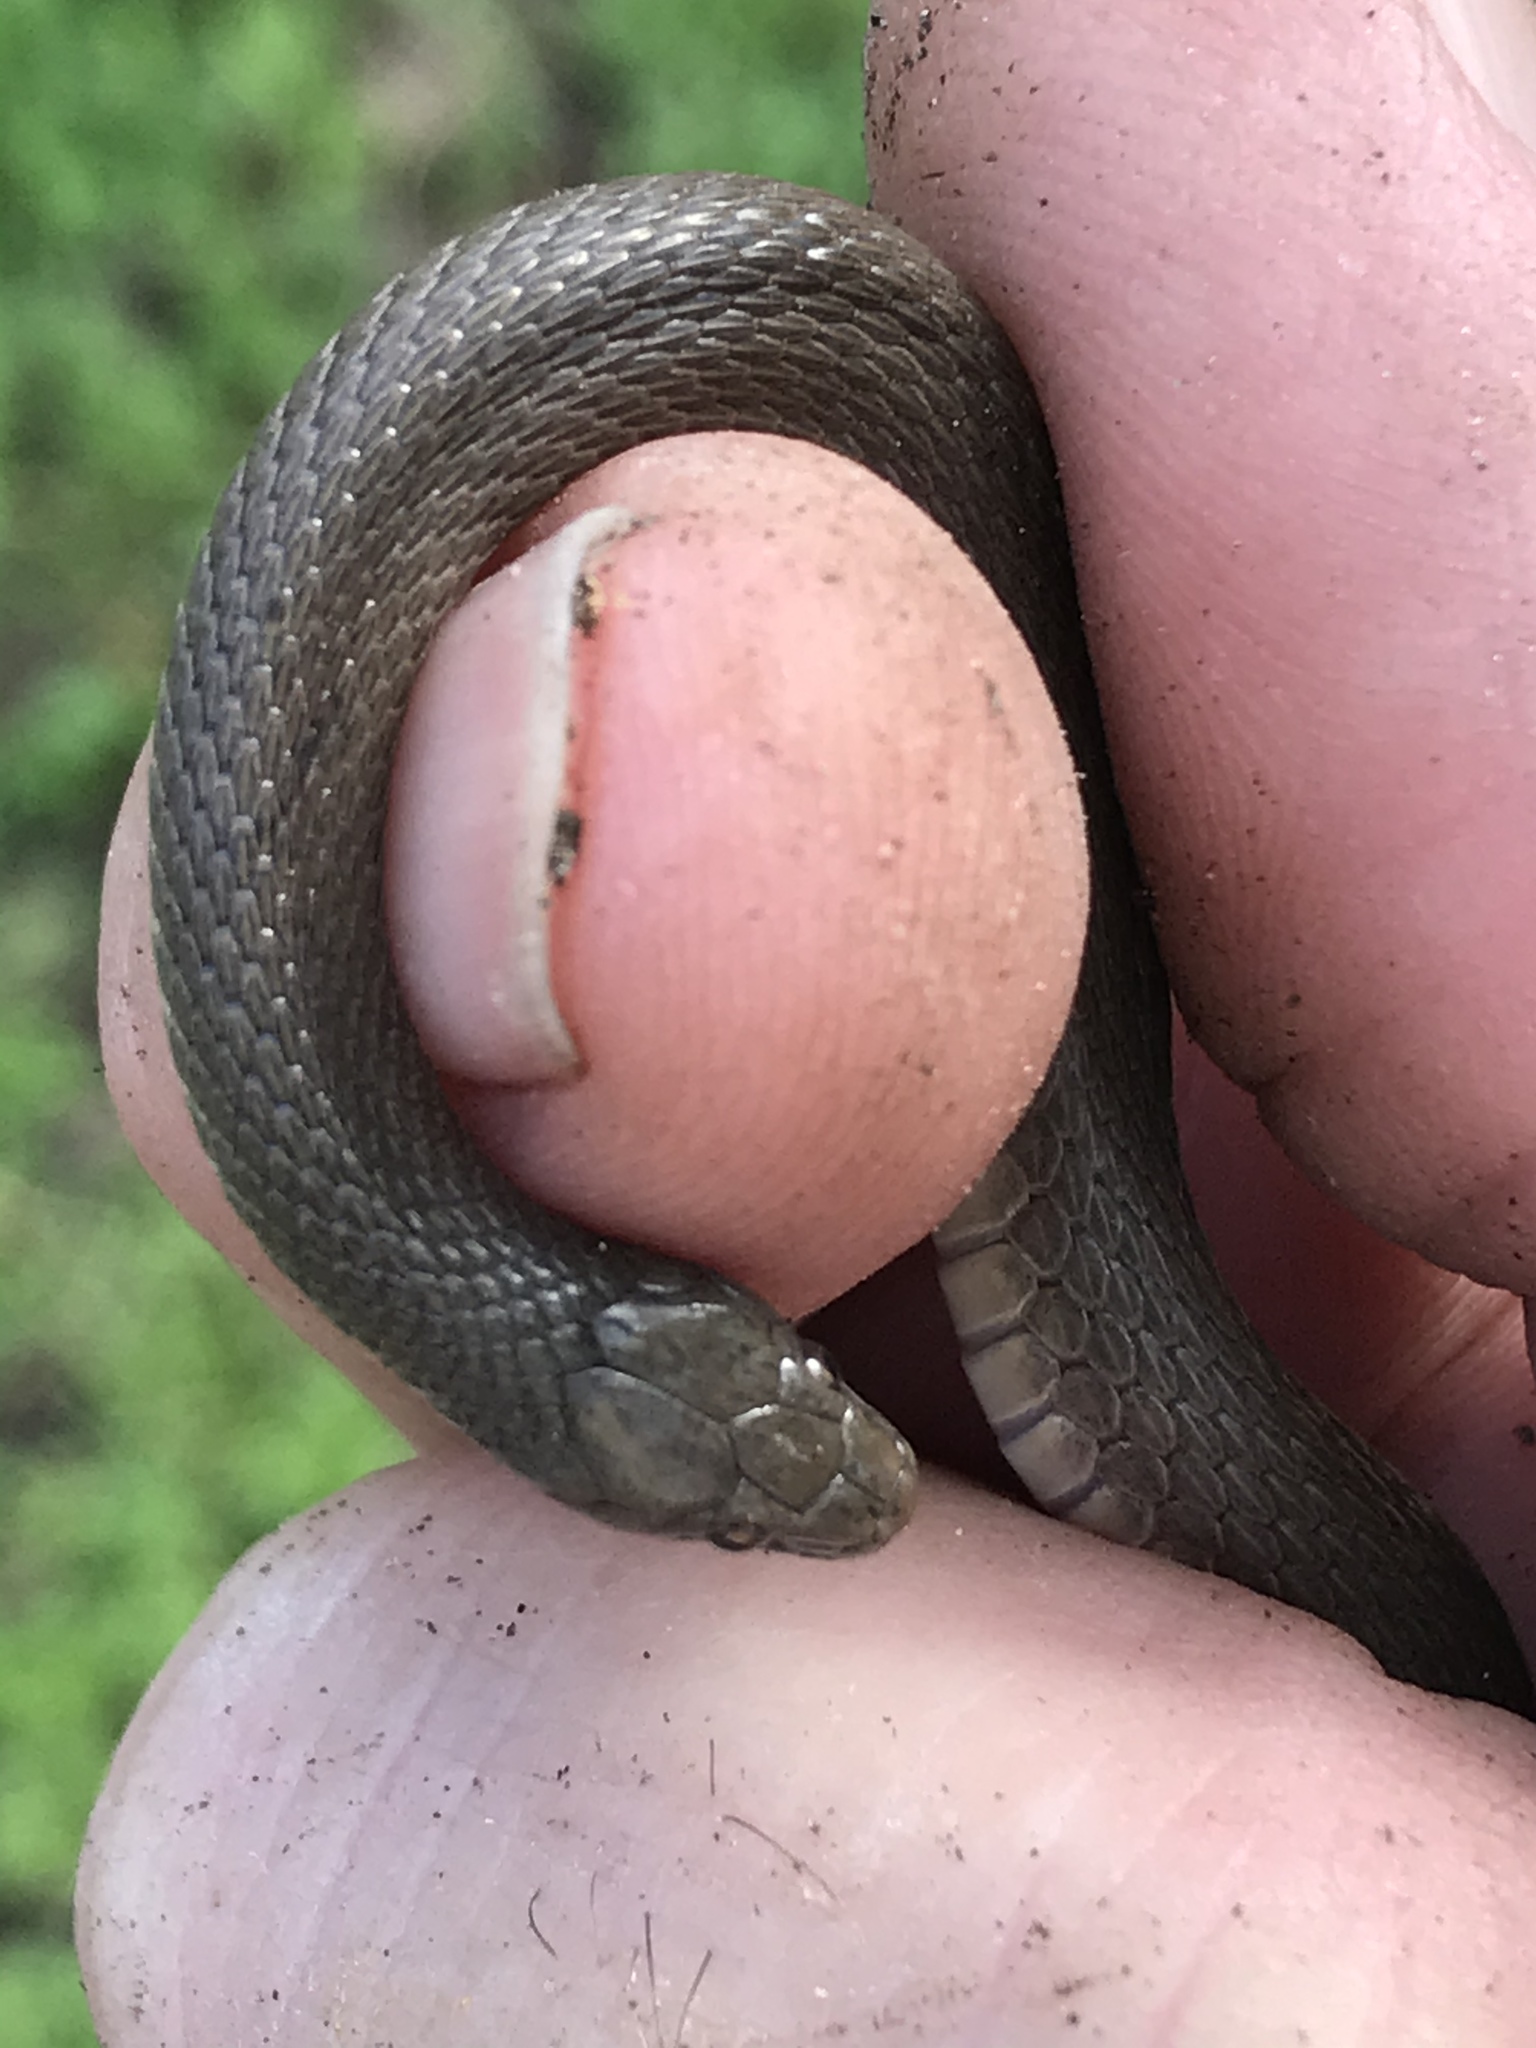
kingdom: Animalia
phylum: Chordata
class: Squamata
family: Colubridae
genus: Haldea
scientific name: Haldea striatula
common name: Rough earth snake
